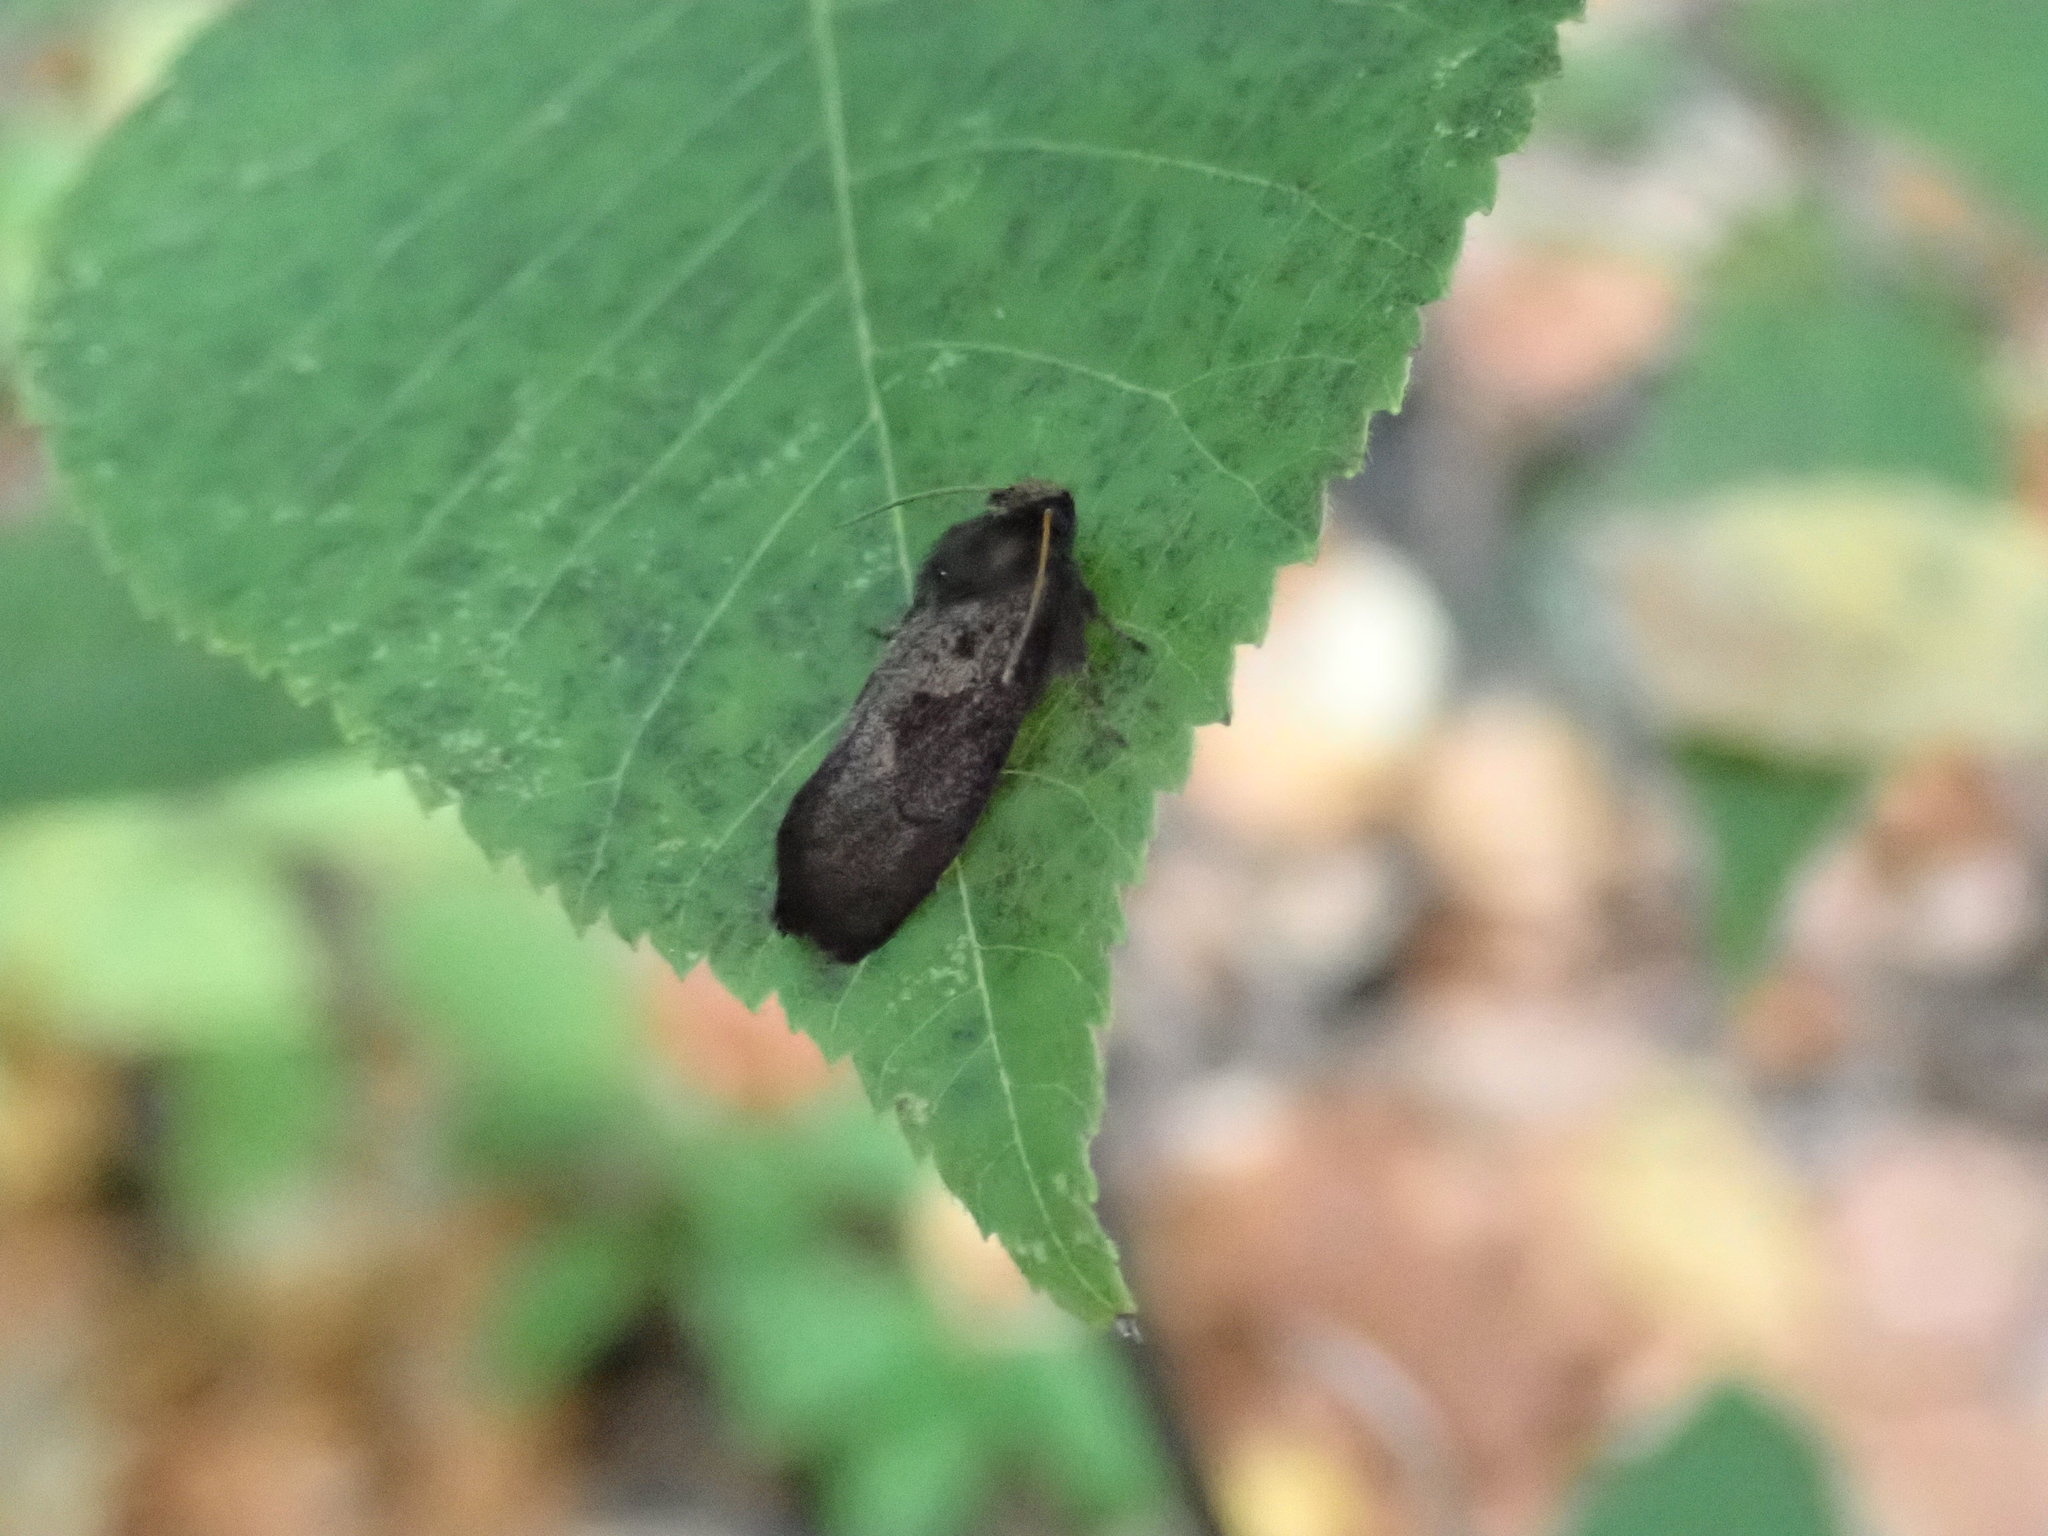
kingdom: Animalia
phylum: Arthropoda
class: Insecta
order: Lepidoptera
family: Tineidae
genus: Acrolophus
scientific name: Acrolophus mora
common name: Dark acrolophus
